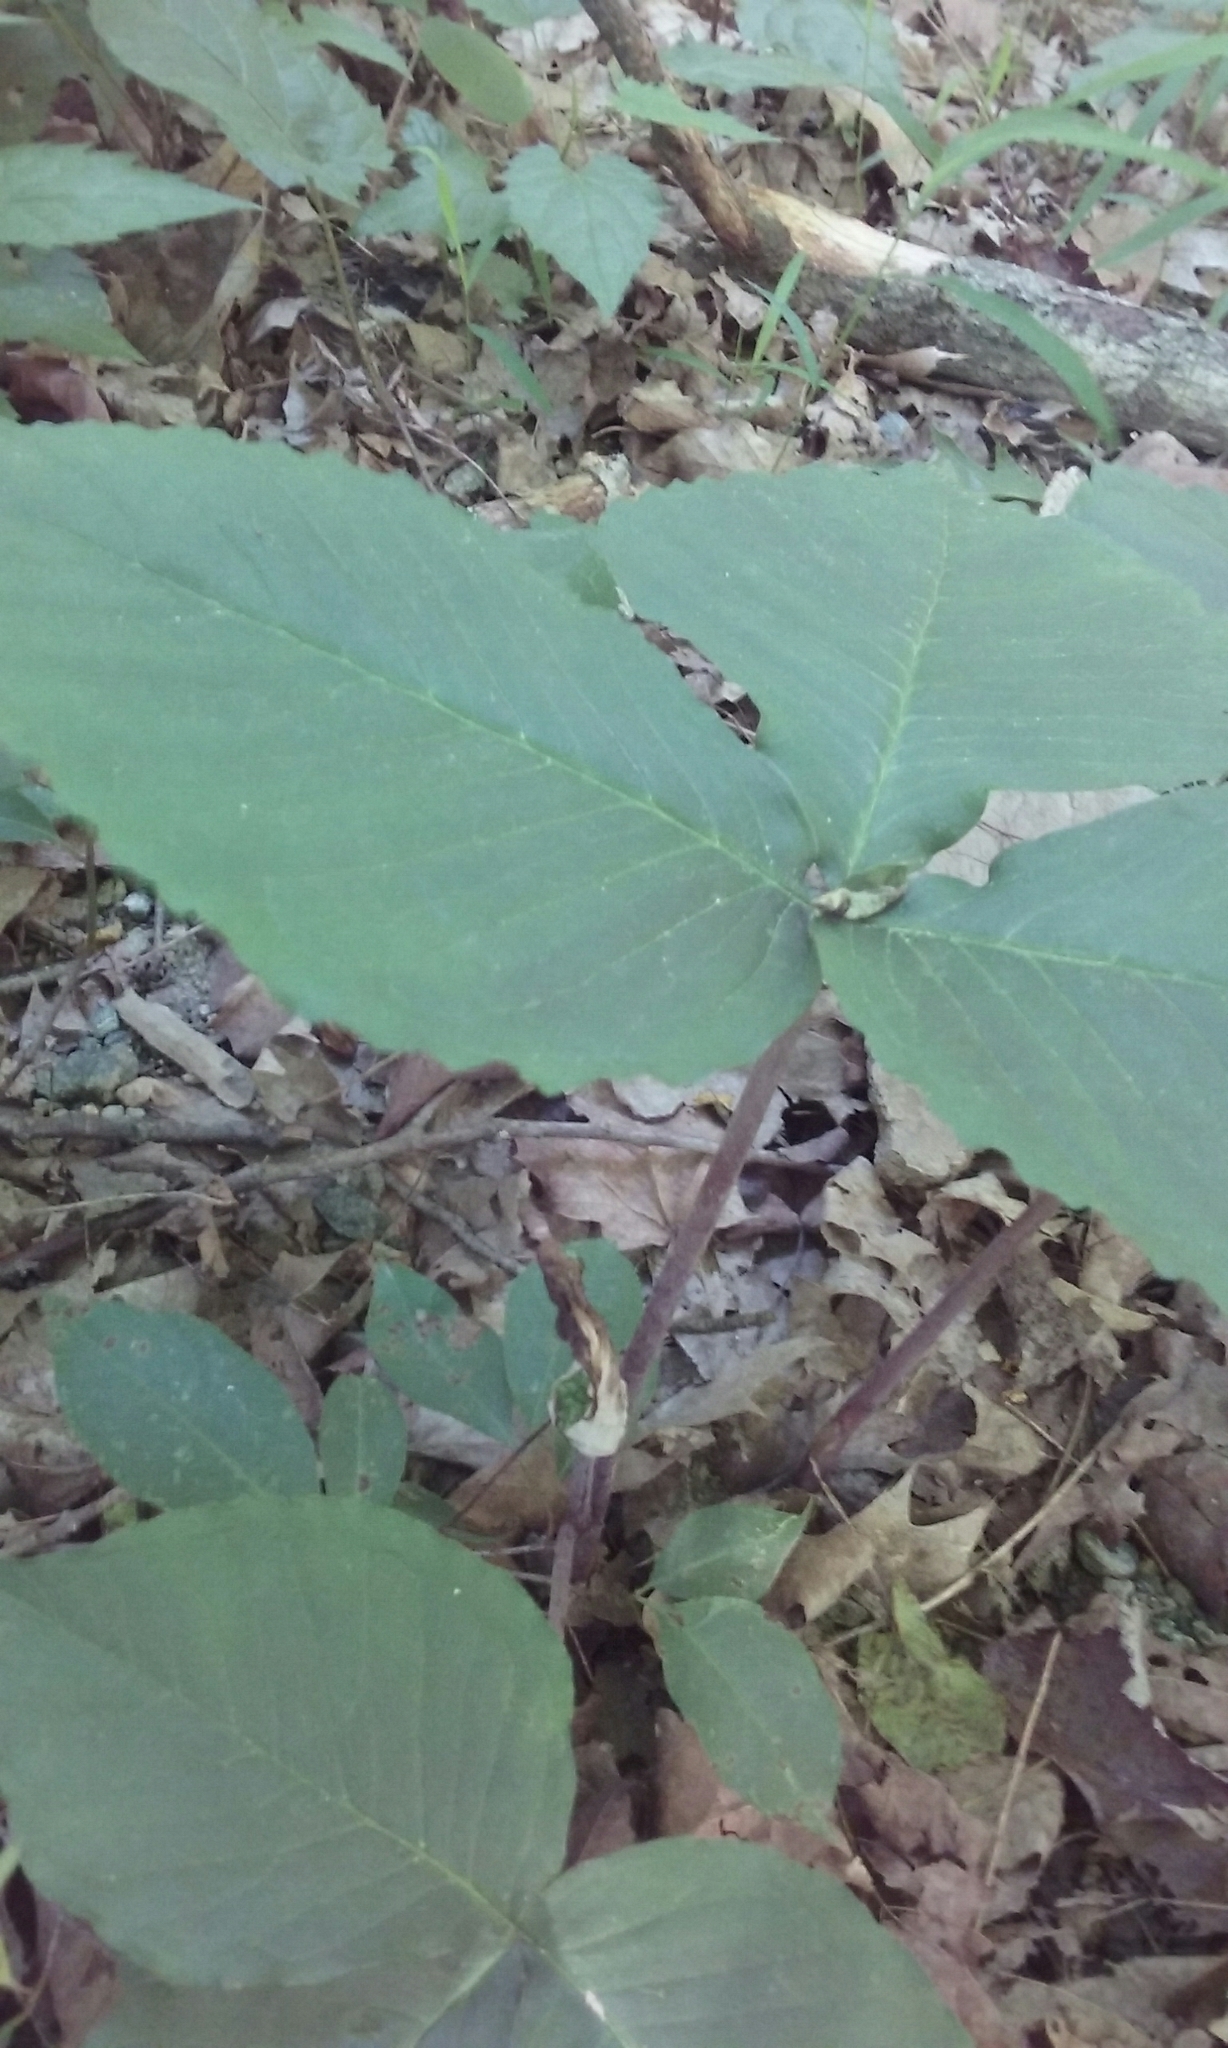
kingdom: Plantae
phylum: Tracheophyta
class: Liliopsida
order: Alismatales
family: Araceae
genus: Arisaema
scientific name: Arisaema triphyllum
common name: Jack-in-the-pulpit
